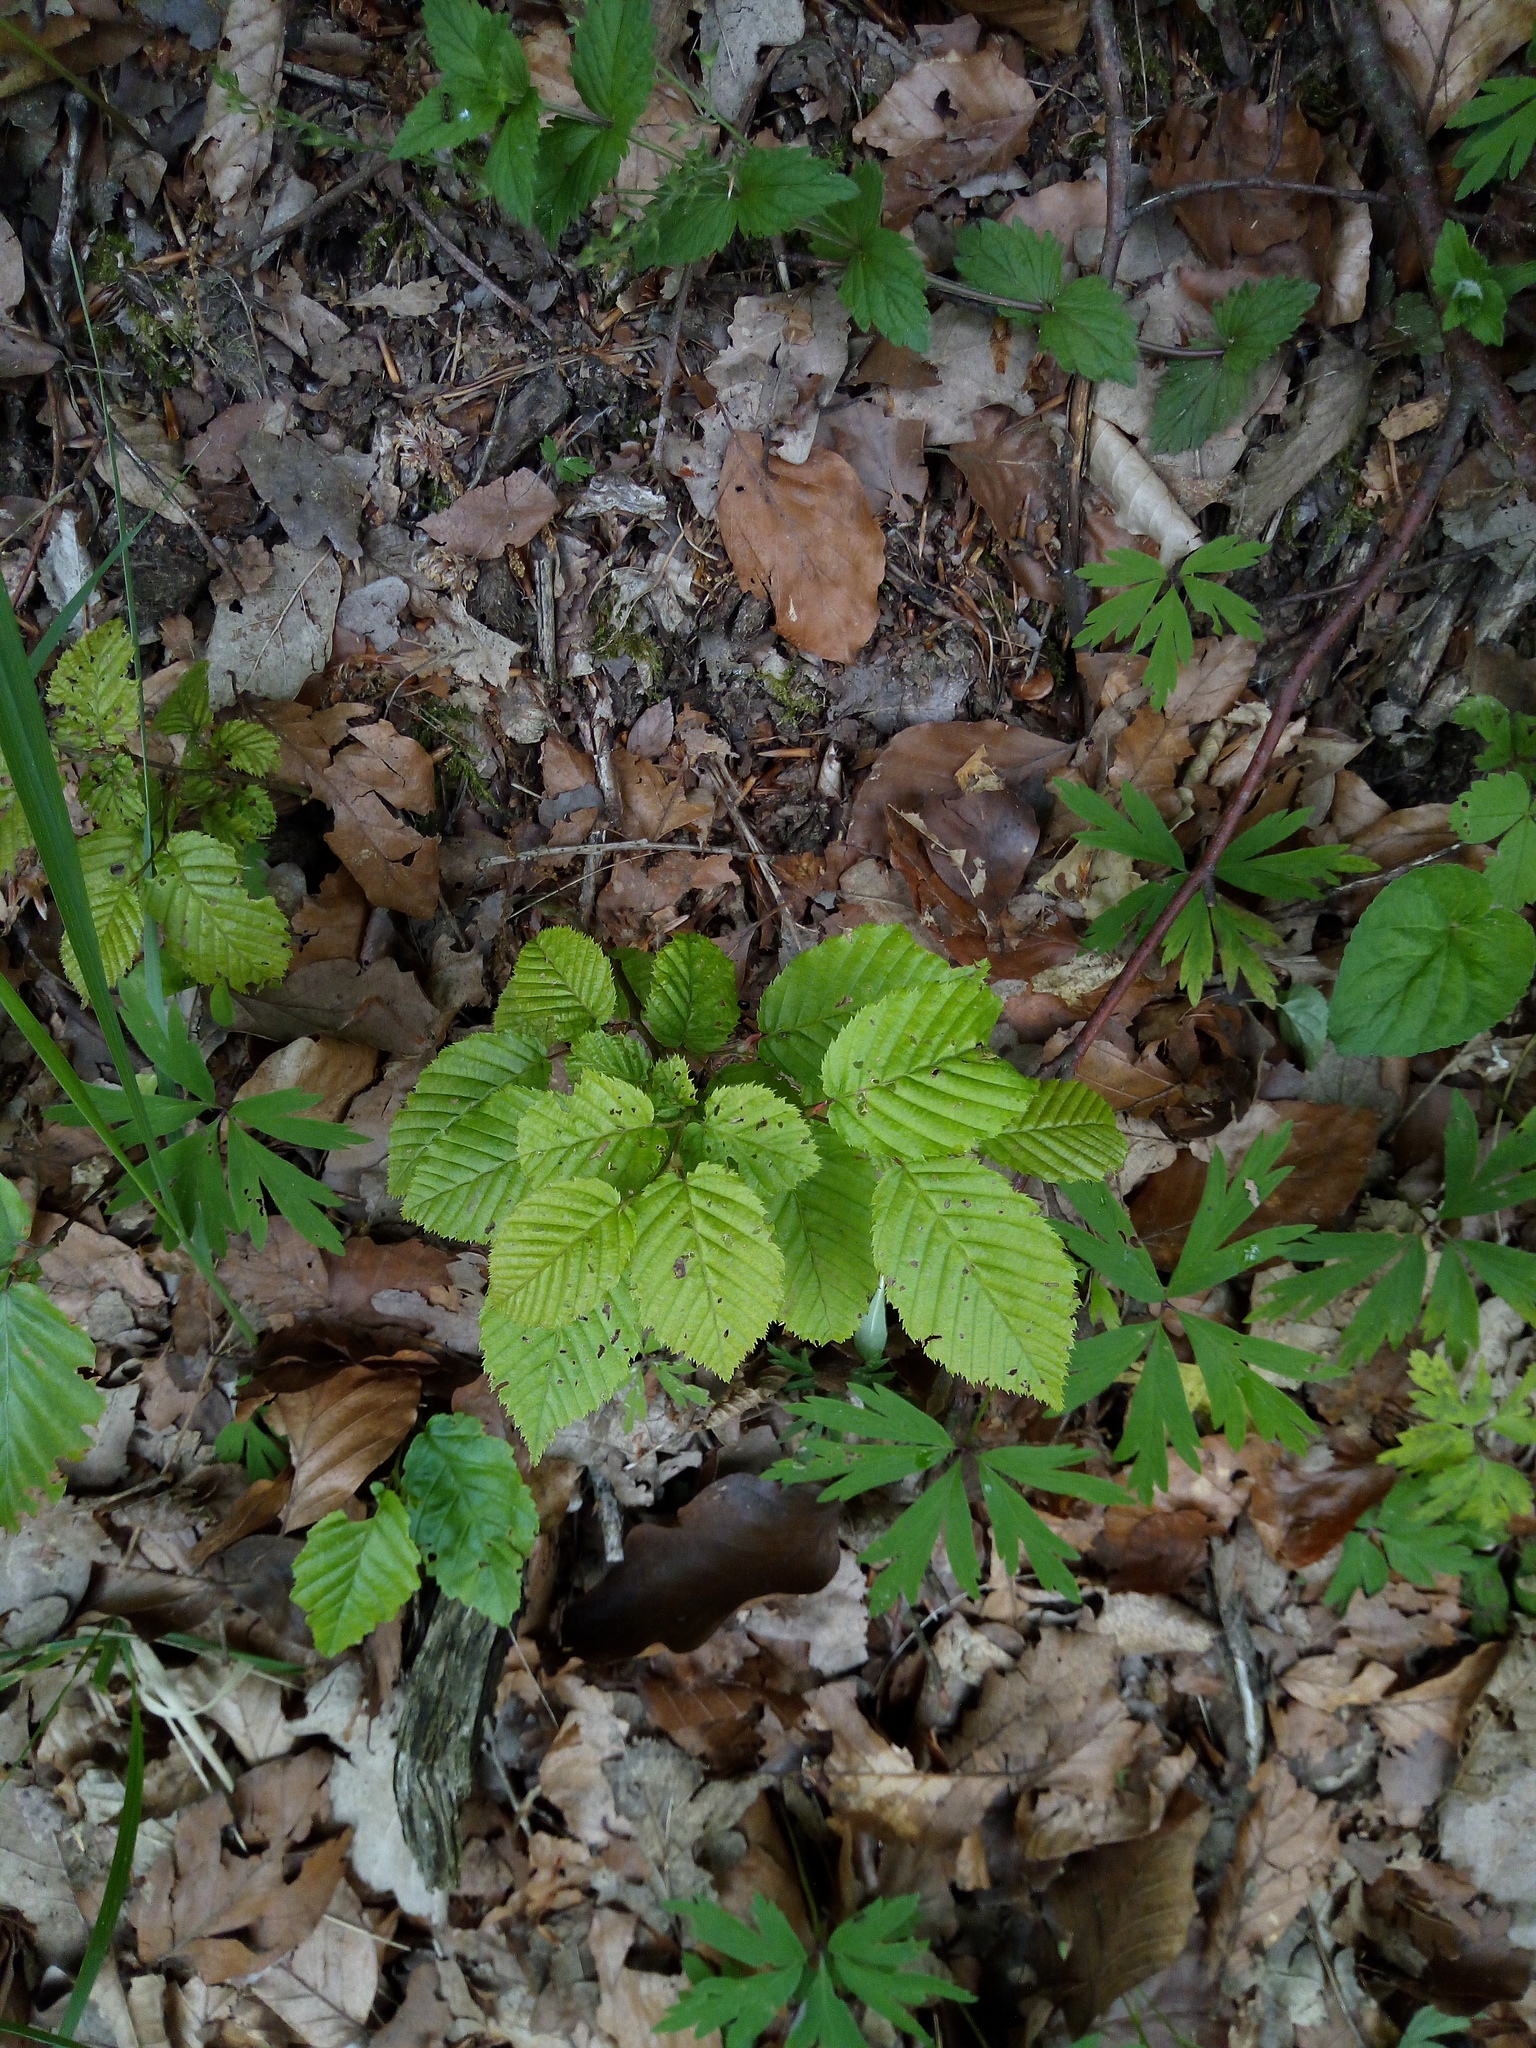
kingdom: Plantae
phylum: Tracheophyta
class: Magnoliopsida
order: Fagales
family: Betulaceae
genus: Carpinus
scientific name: Carpinus betulus
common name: Hornbeam
